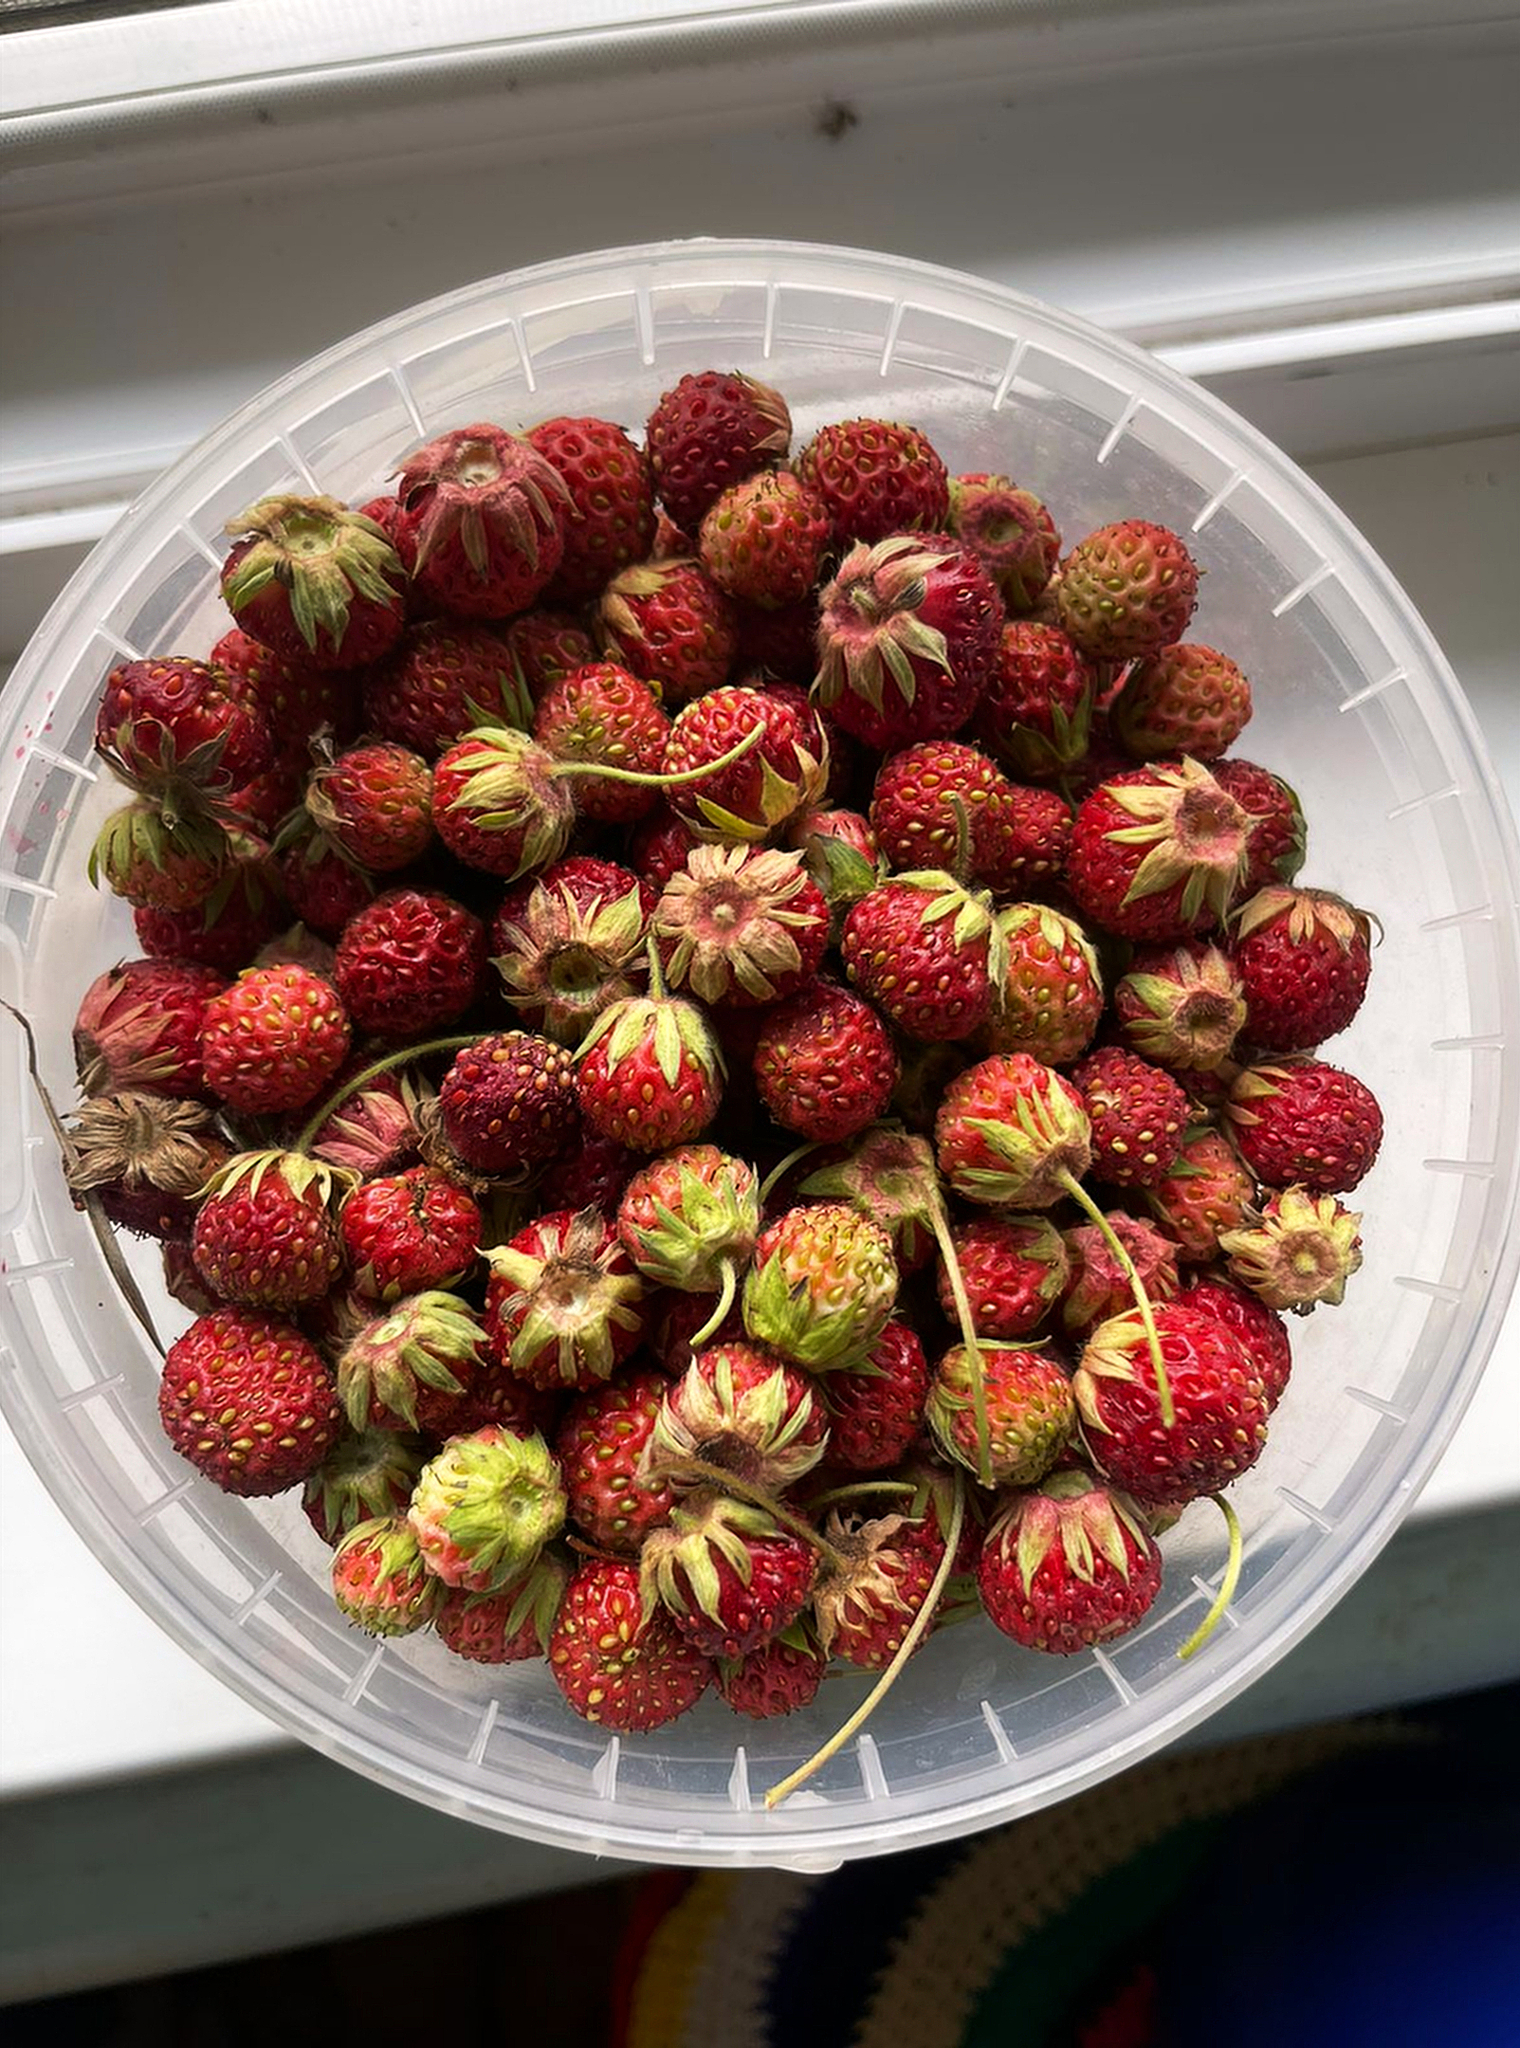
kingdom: Plantae
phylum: Tracheophyta
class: Magnoliopsida
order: Rosales
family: Rosaceae
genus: Fragaria
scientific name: Fragaria viridis
